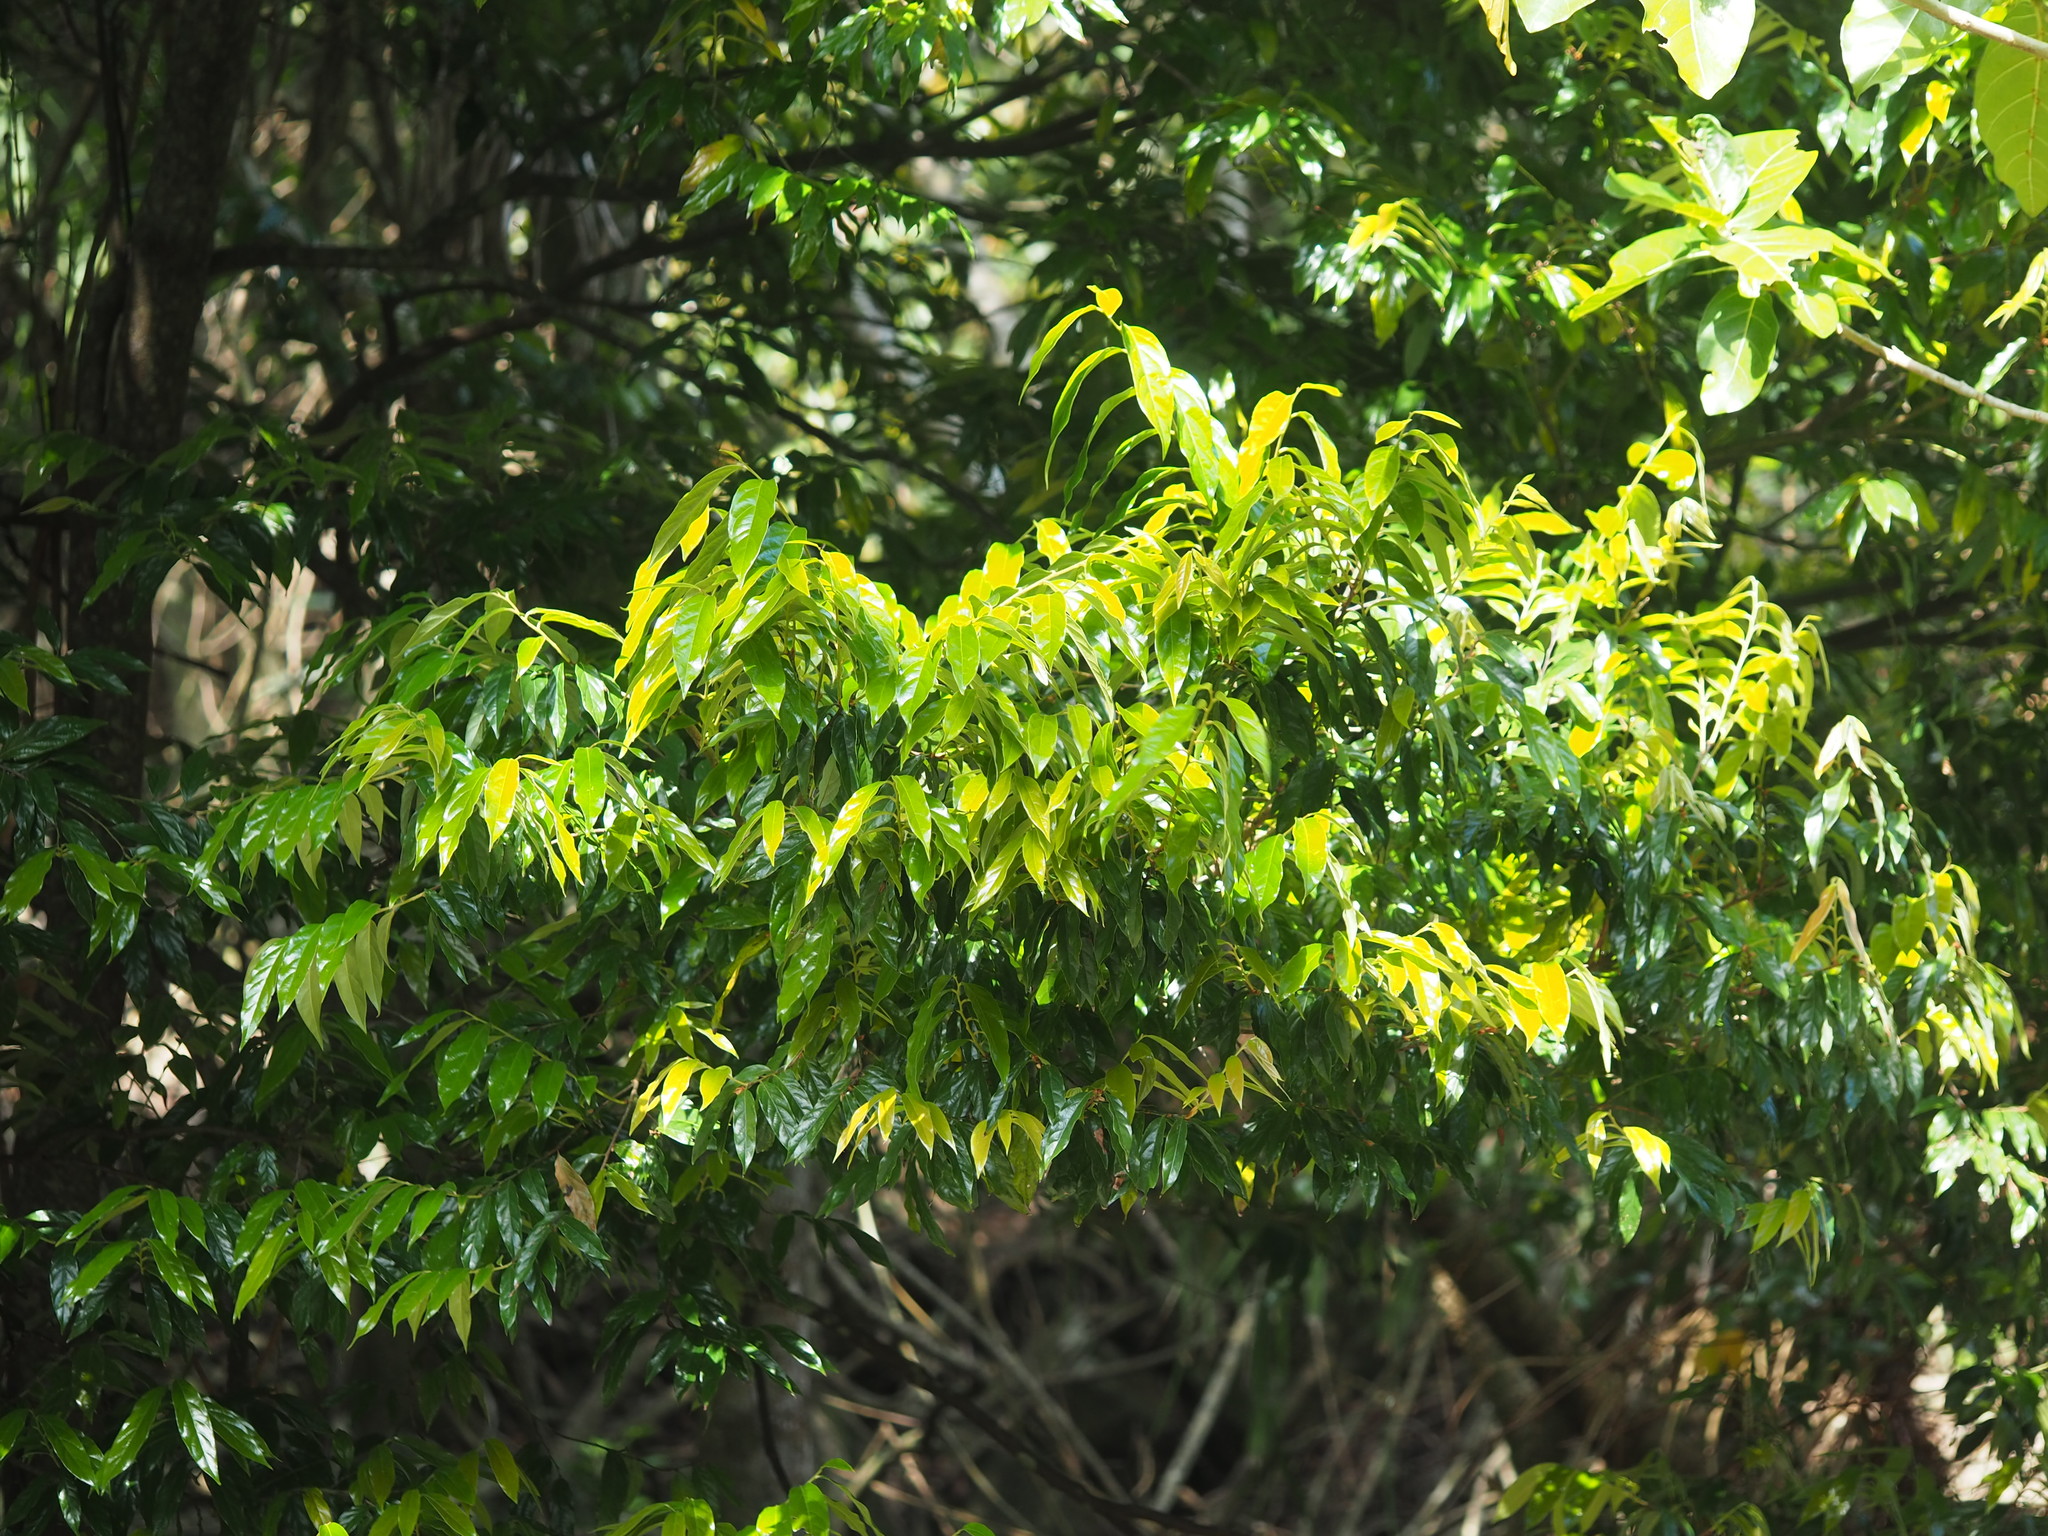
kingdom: Plantae
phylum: Tracheophyta
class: Magnoliopsida
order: Ericales
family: Ebenaceae
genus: Diospyros
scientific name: Diospyros eriantha
